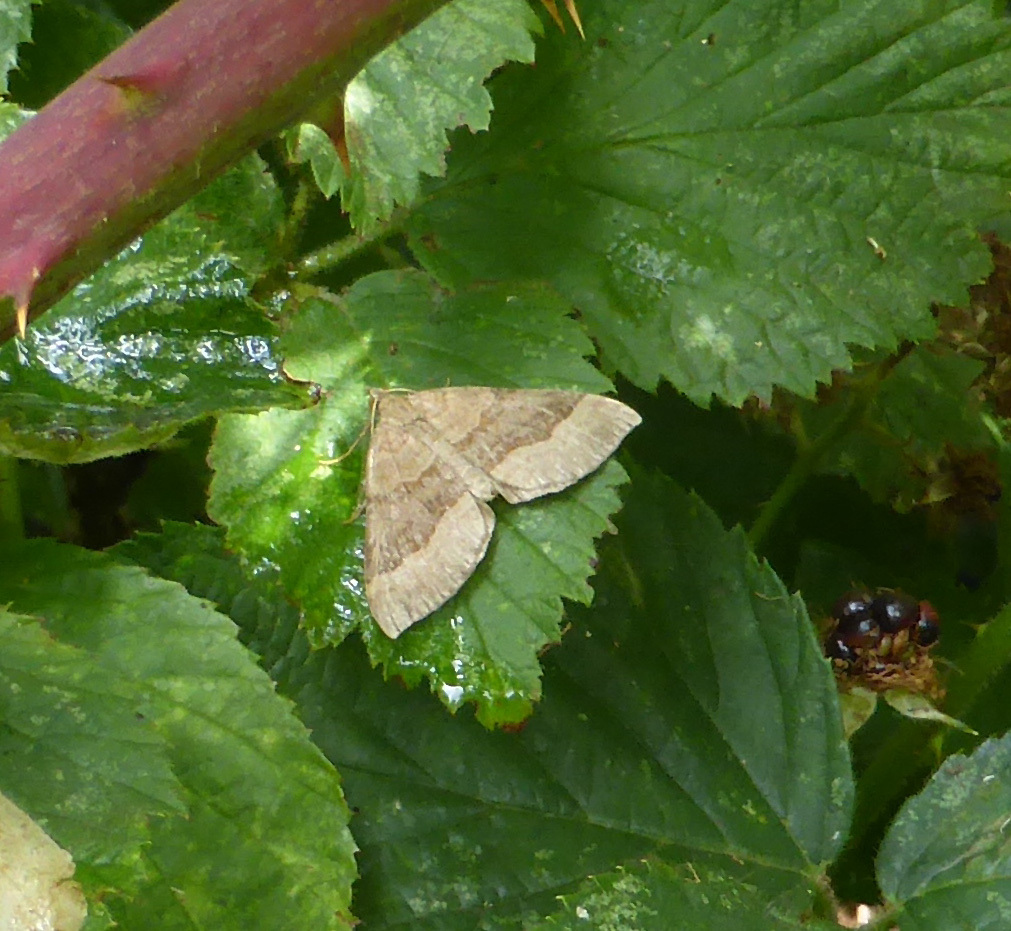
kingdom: Animalia
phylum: Arthropoda
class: Insecta
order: Lepidoptera
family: Geometridae
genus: Scotopteryx
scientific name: Scotopteryx chenopodiata
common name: Shaded broad-bar
